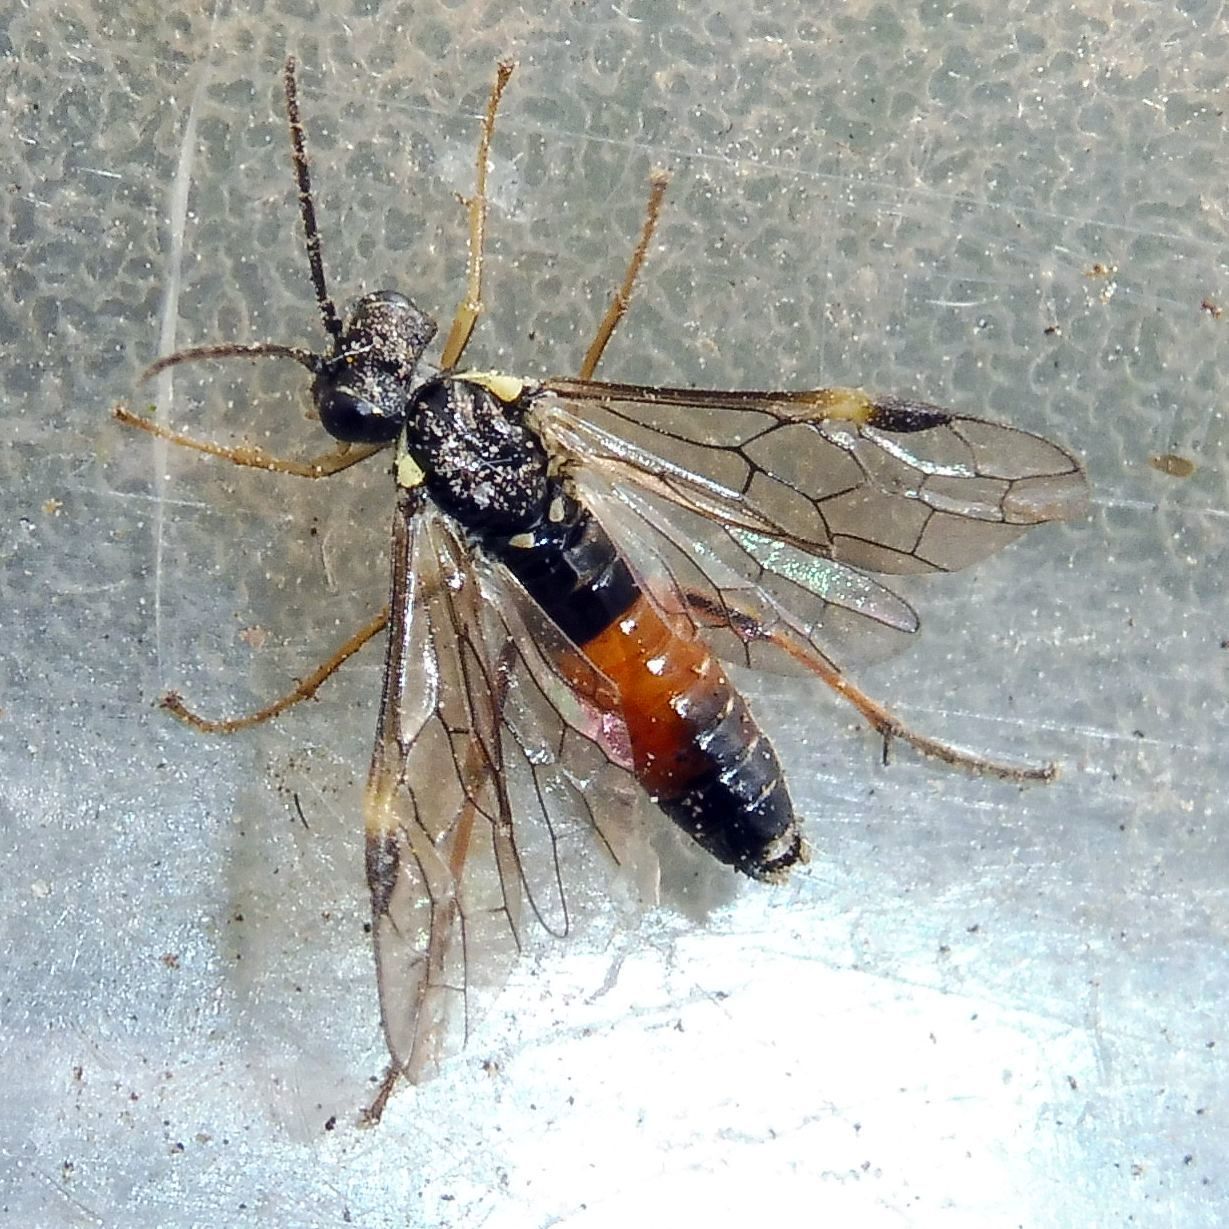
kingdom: Animalia
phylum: Arthropoda
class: Insecta
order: Hymenoptera
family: Tenthredinidae
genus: Aglaostigma
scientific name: Aglaostigma aucupariae
